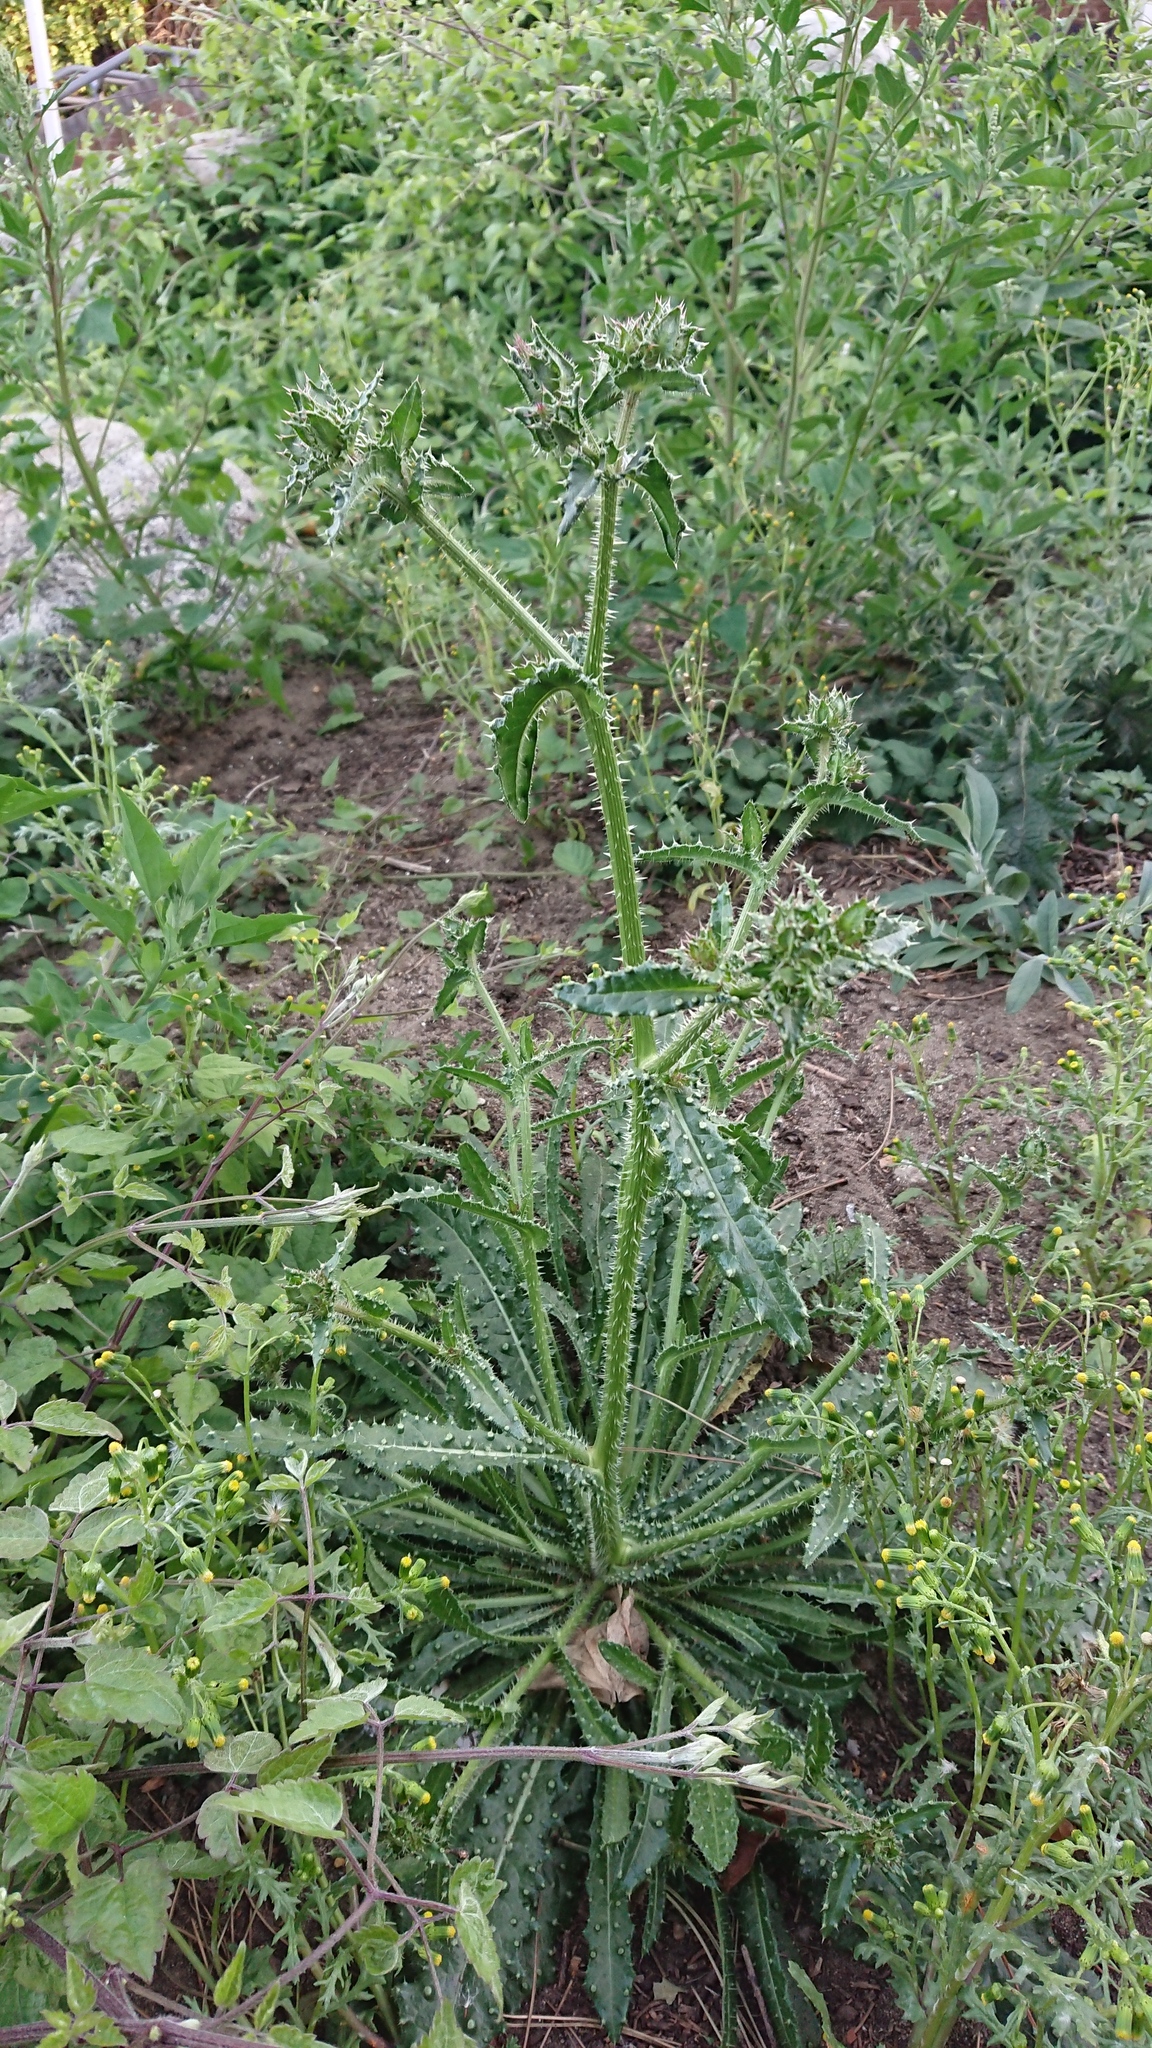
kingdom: Plantae
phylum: Tracheophyta
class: Magnoliopsida
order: Asterales
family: Asteraceae
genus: Helminthotheca
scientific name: Helminthotheca echioides
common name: Ox-tongue
